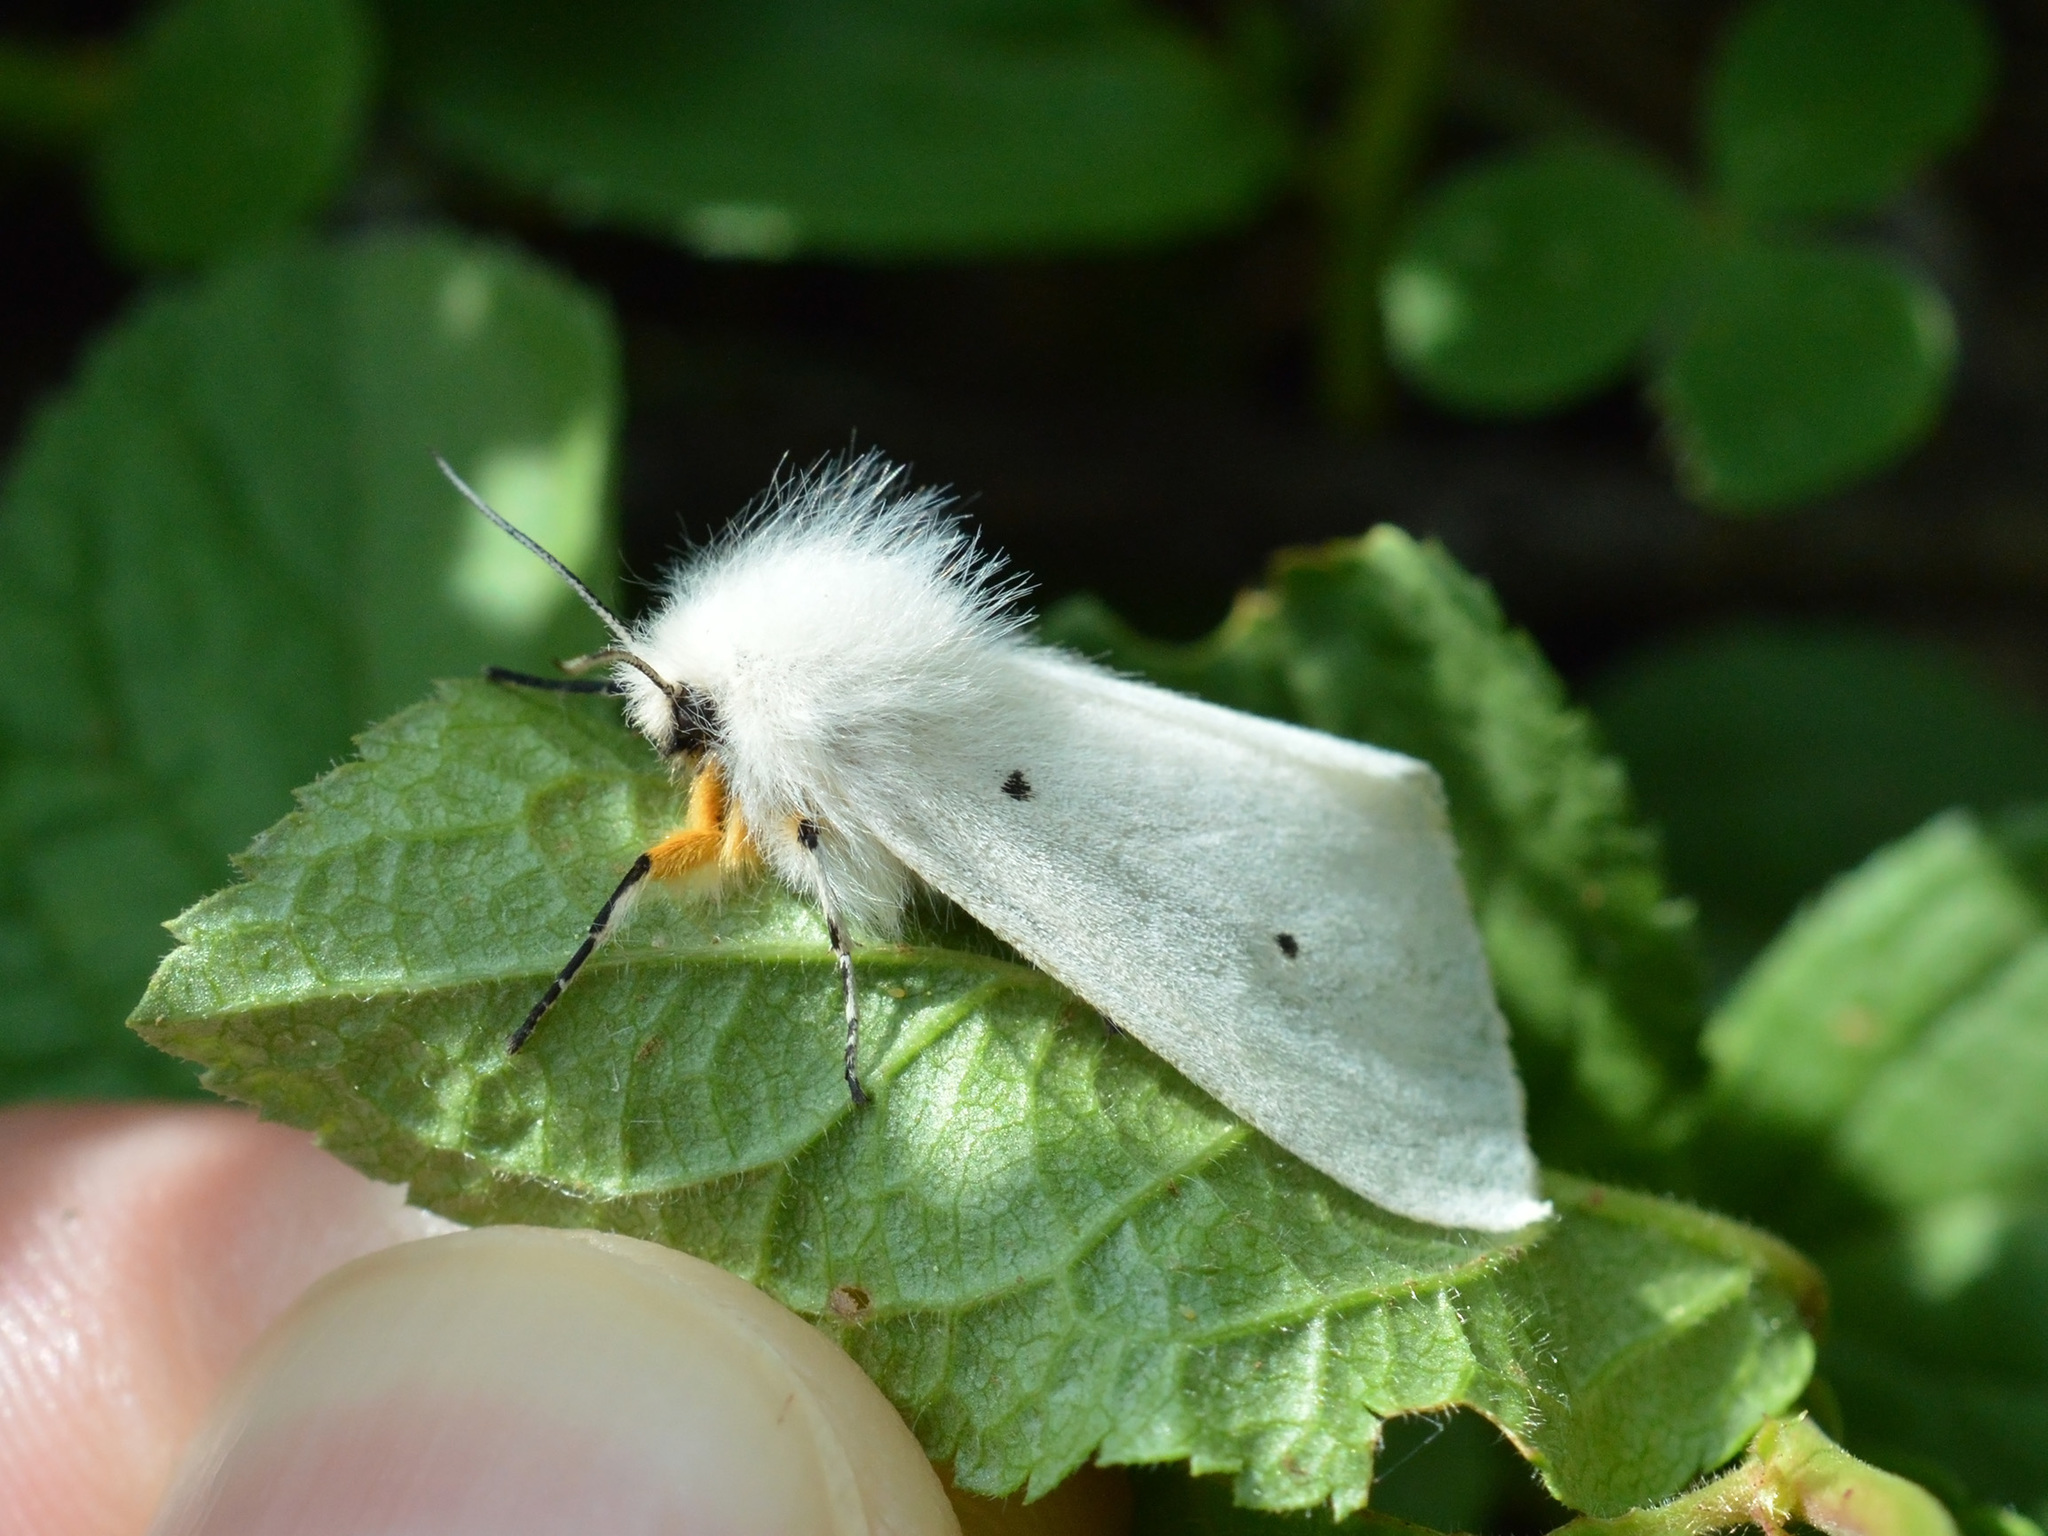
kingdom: Animalia
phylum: Arthropoda
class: Insecta
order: Lepidoptera
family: Erebidae
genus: Diaphora
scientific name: Diaphora mendica
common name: Muslin moth
